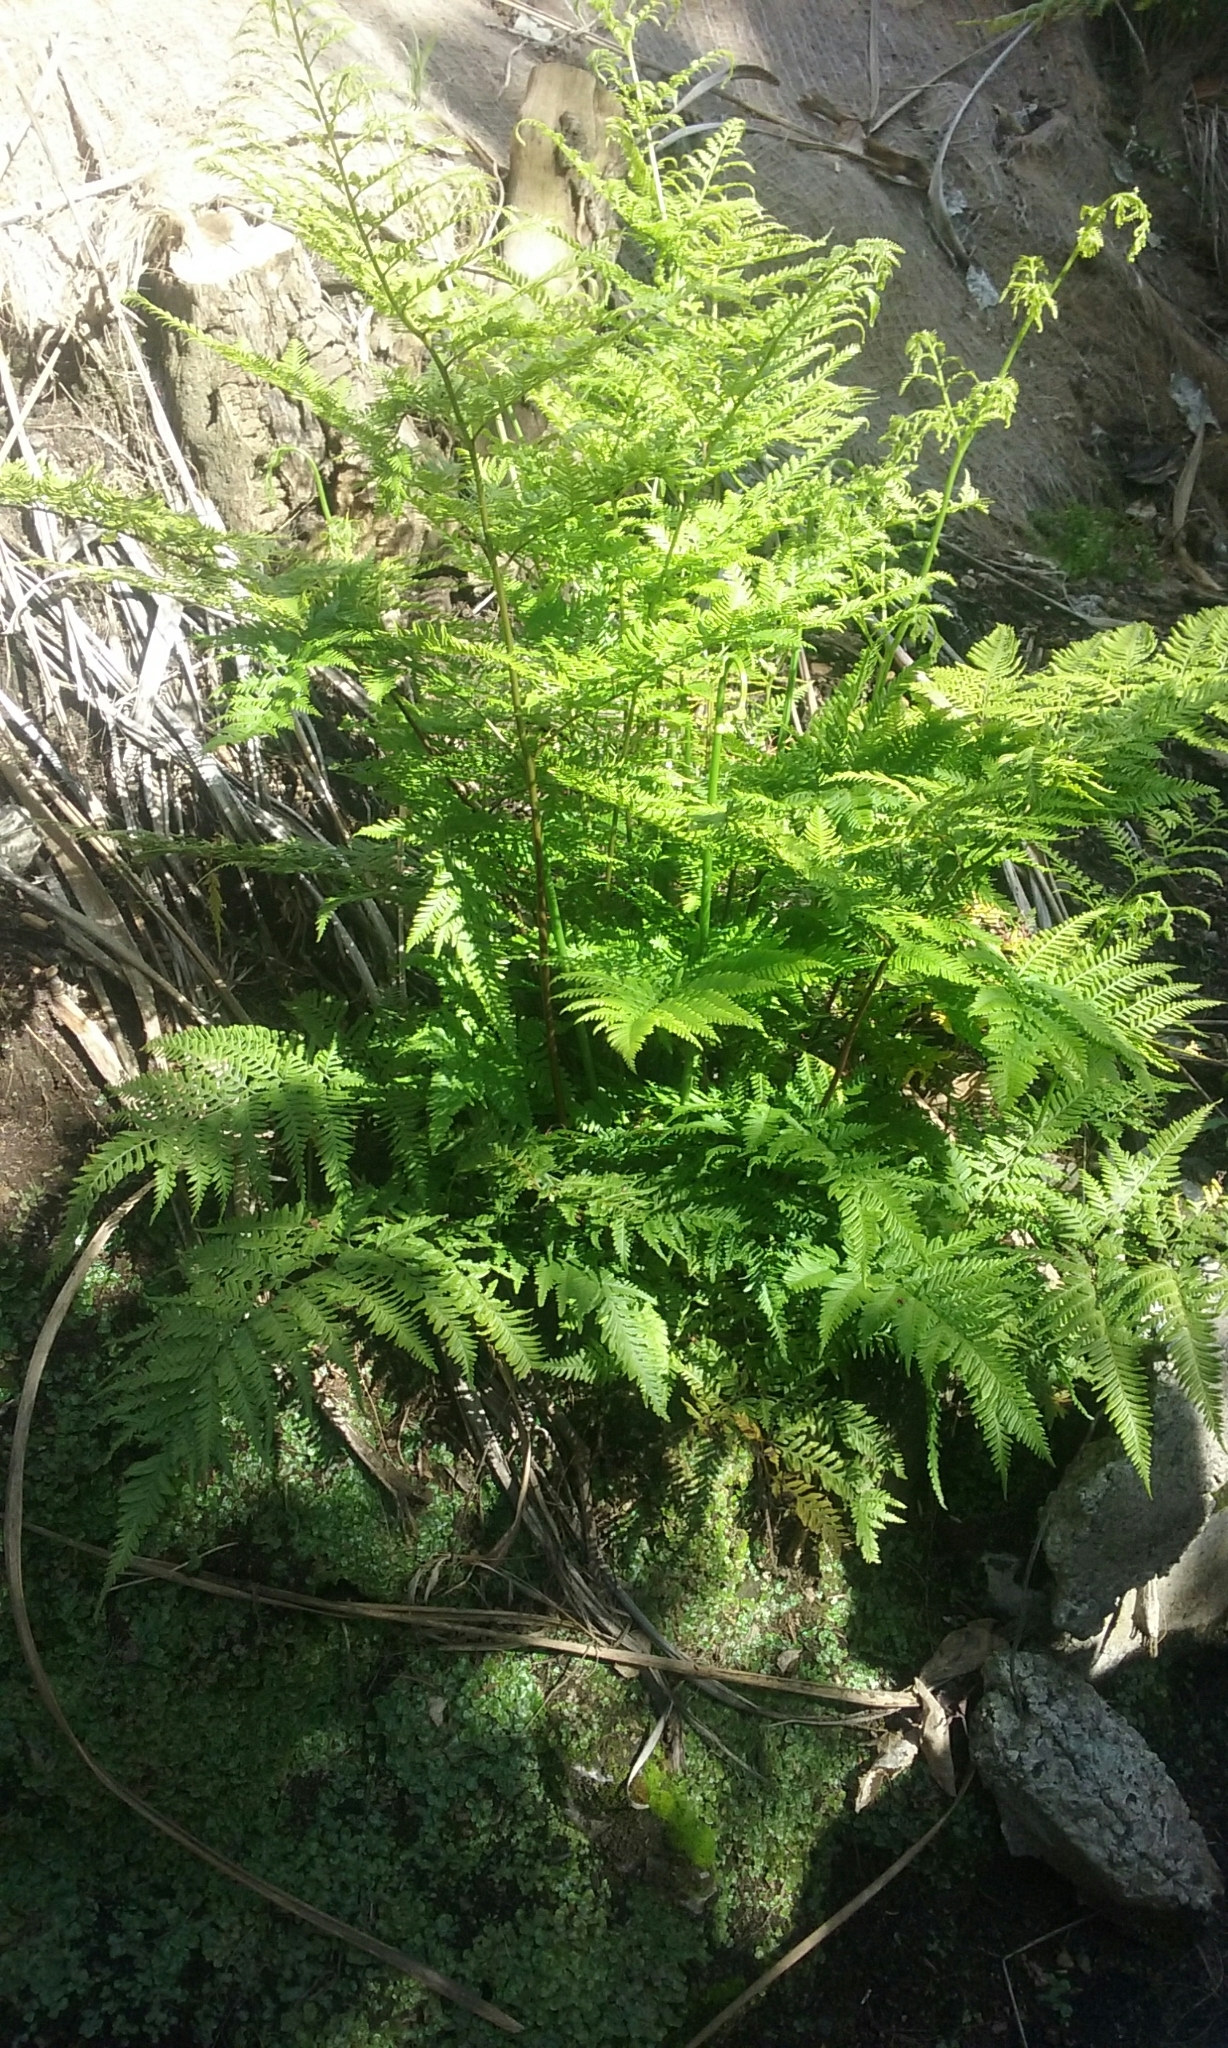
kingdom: Plantae
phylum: Tracheophyta
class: Polypodiopsida
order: Polypodiales
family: Pteridaceae
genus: Pteris
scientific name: Pteris tremula
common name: Australian brake
